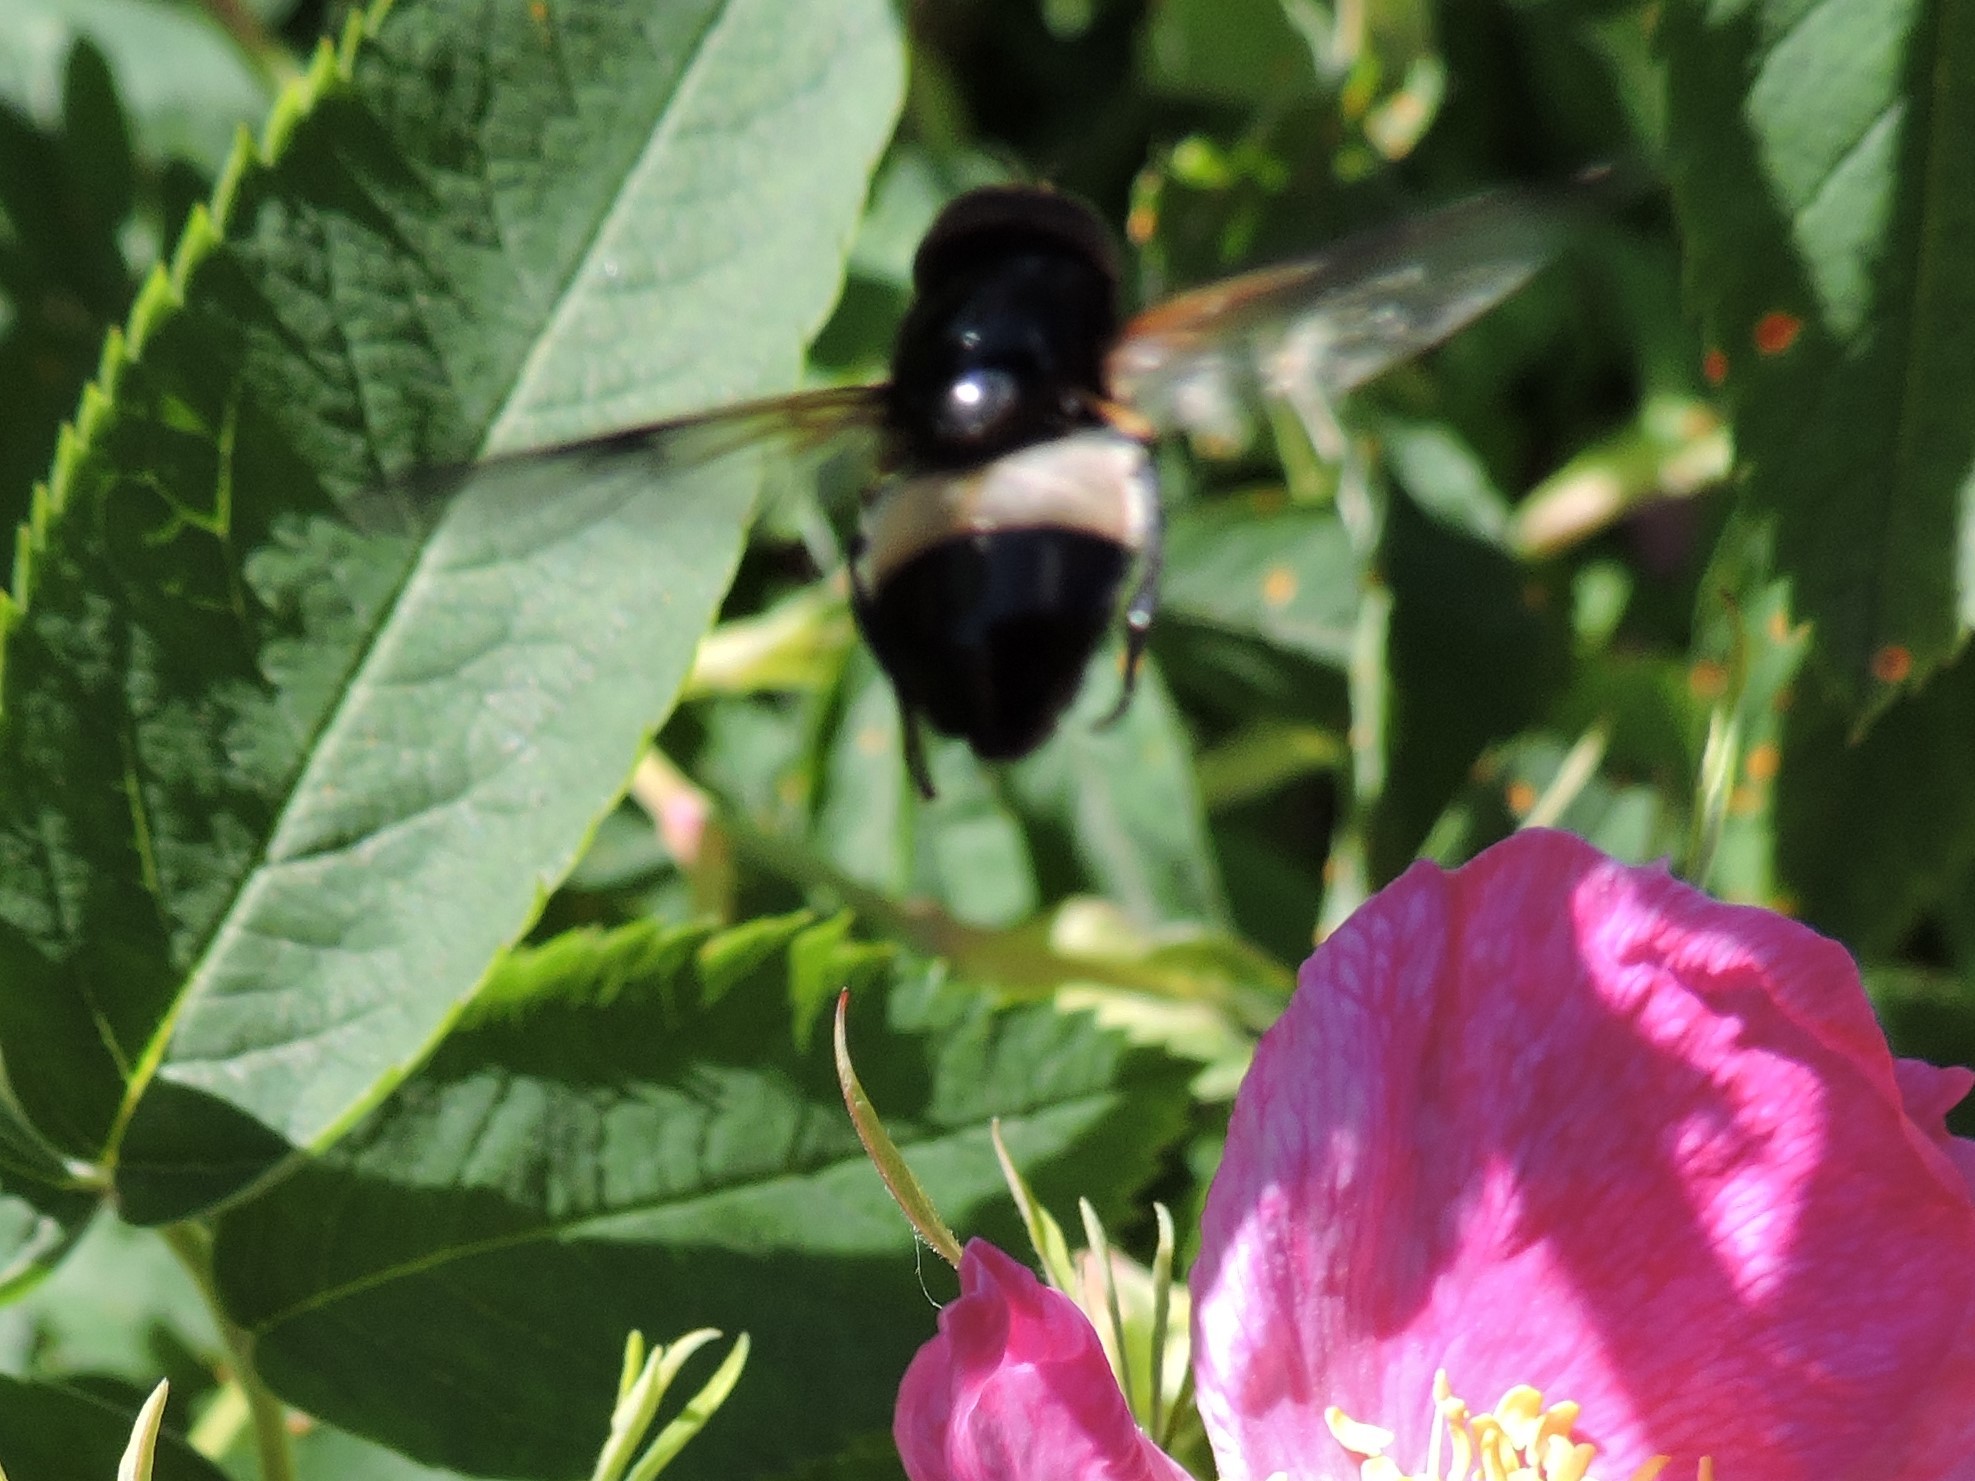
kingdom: Animalia
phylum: Arthropoda
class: Insecta
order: Diptera
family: Syrphidae
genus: Volucella
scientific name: Volucella pellucens
